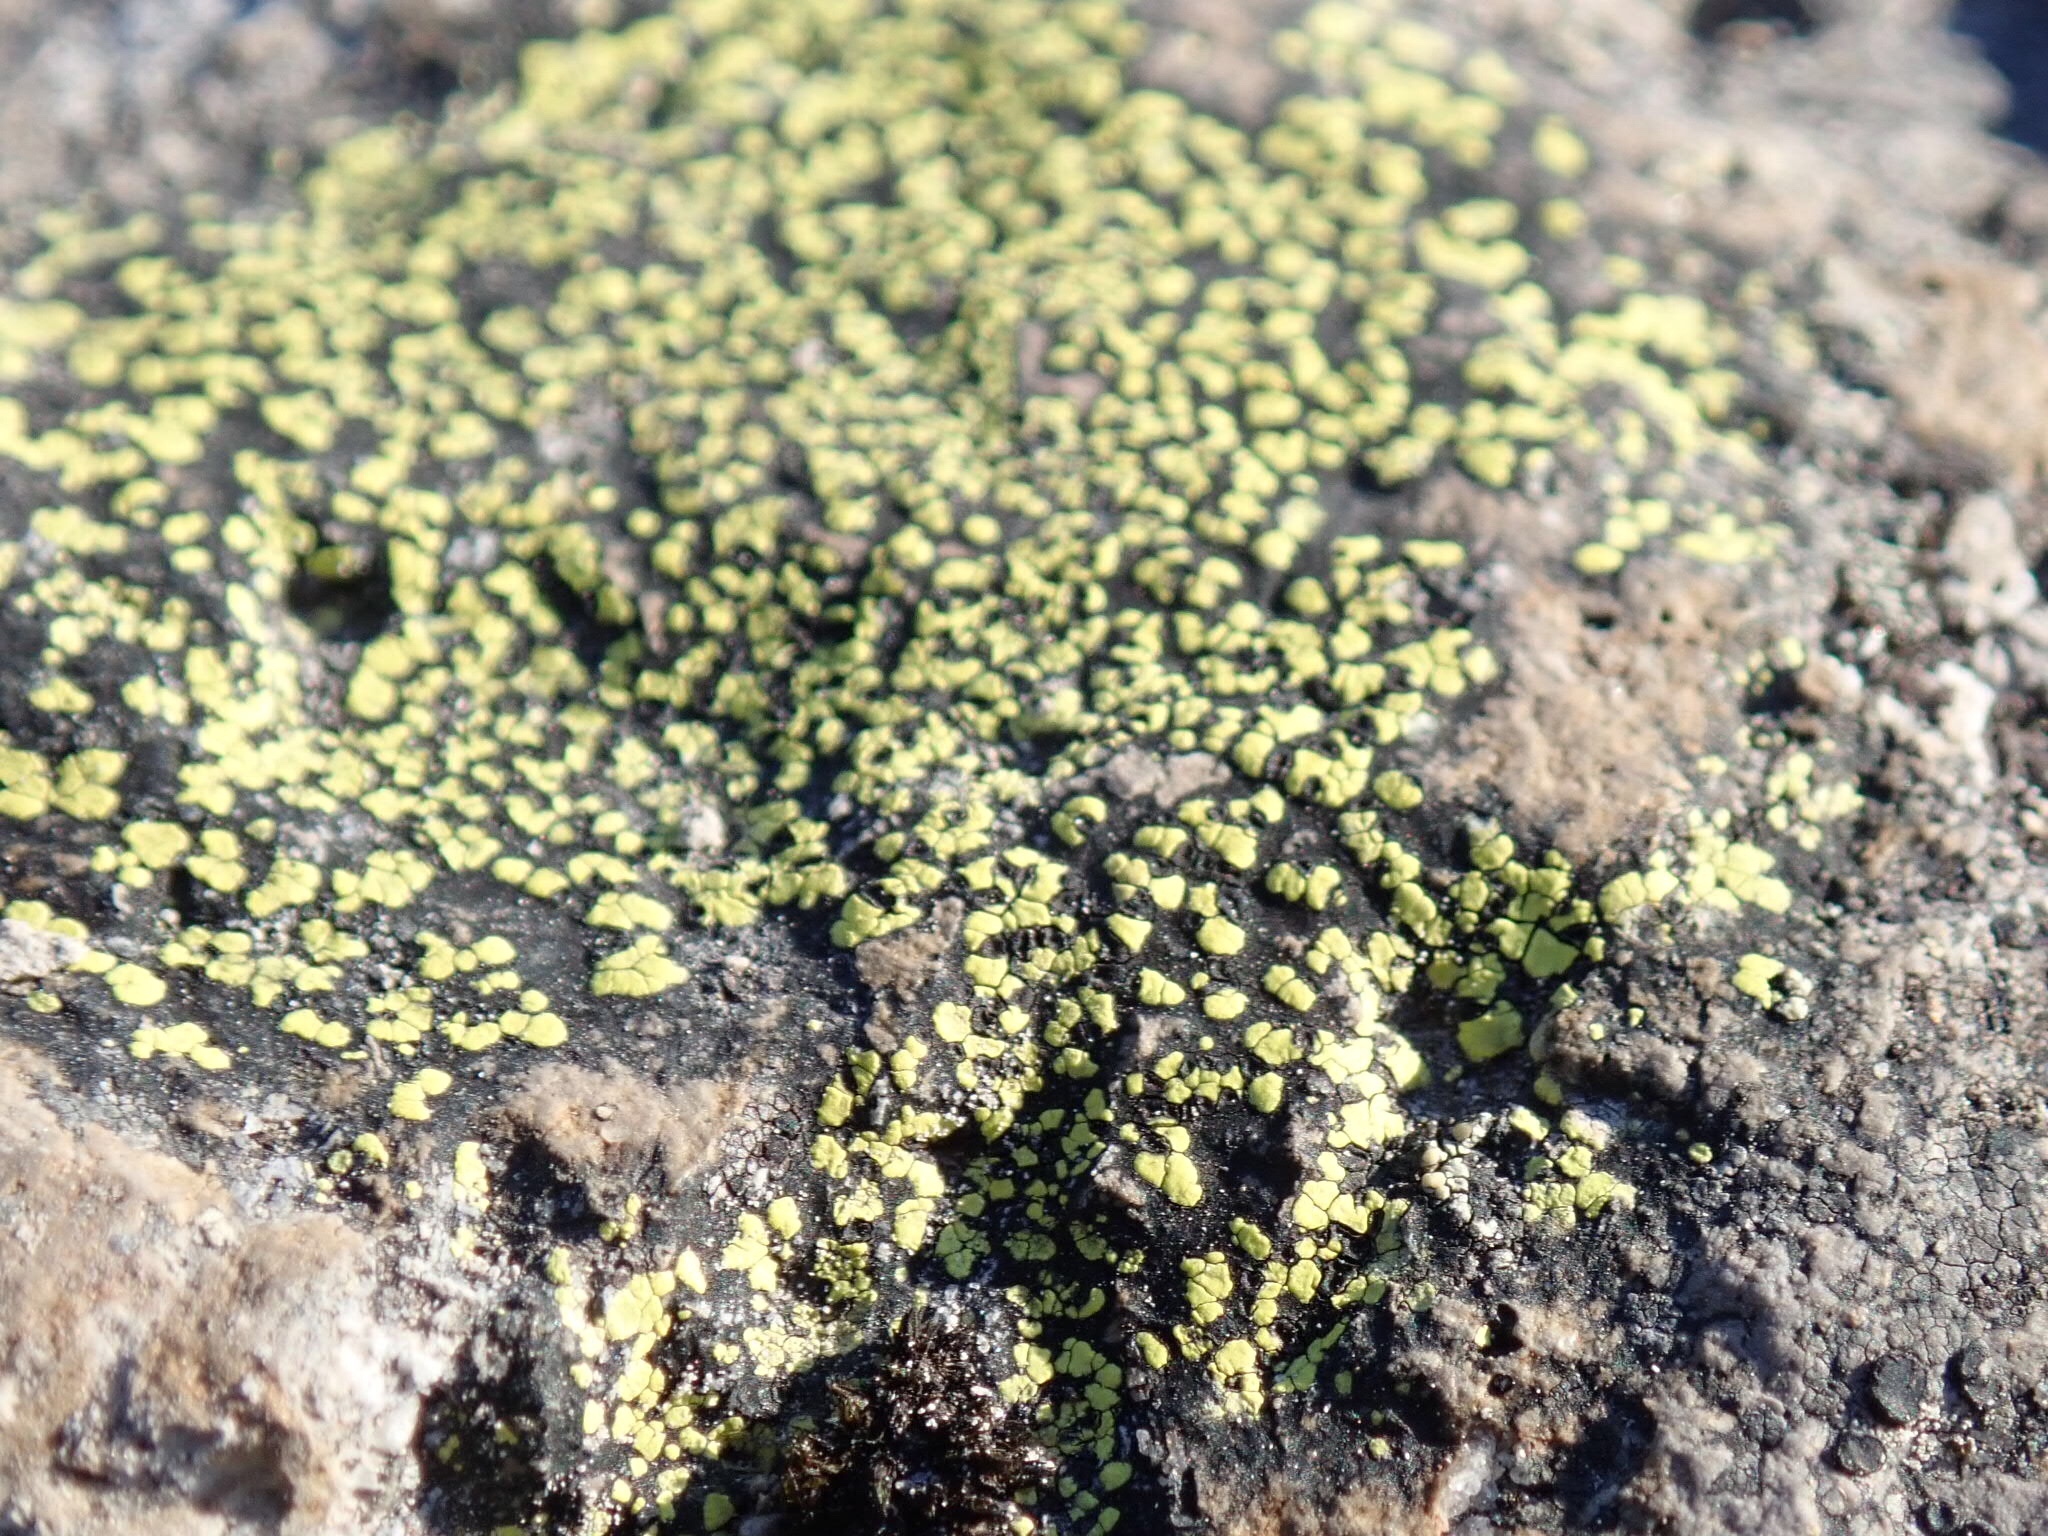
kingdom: Fungi
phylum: Ascomycota
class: Lecanoromycetes
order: Rhizocarpales
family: Rhizocarpaceae
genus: Rhizocarpon
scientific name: Rhizocarpon geographicum
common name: Yellow map lichen
